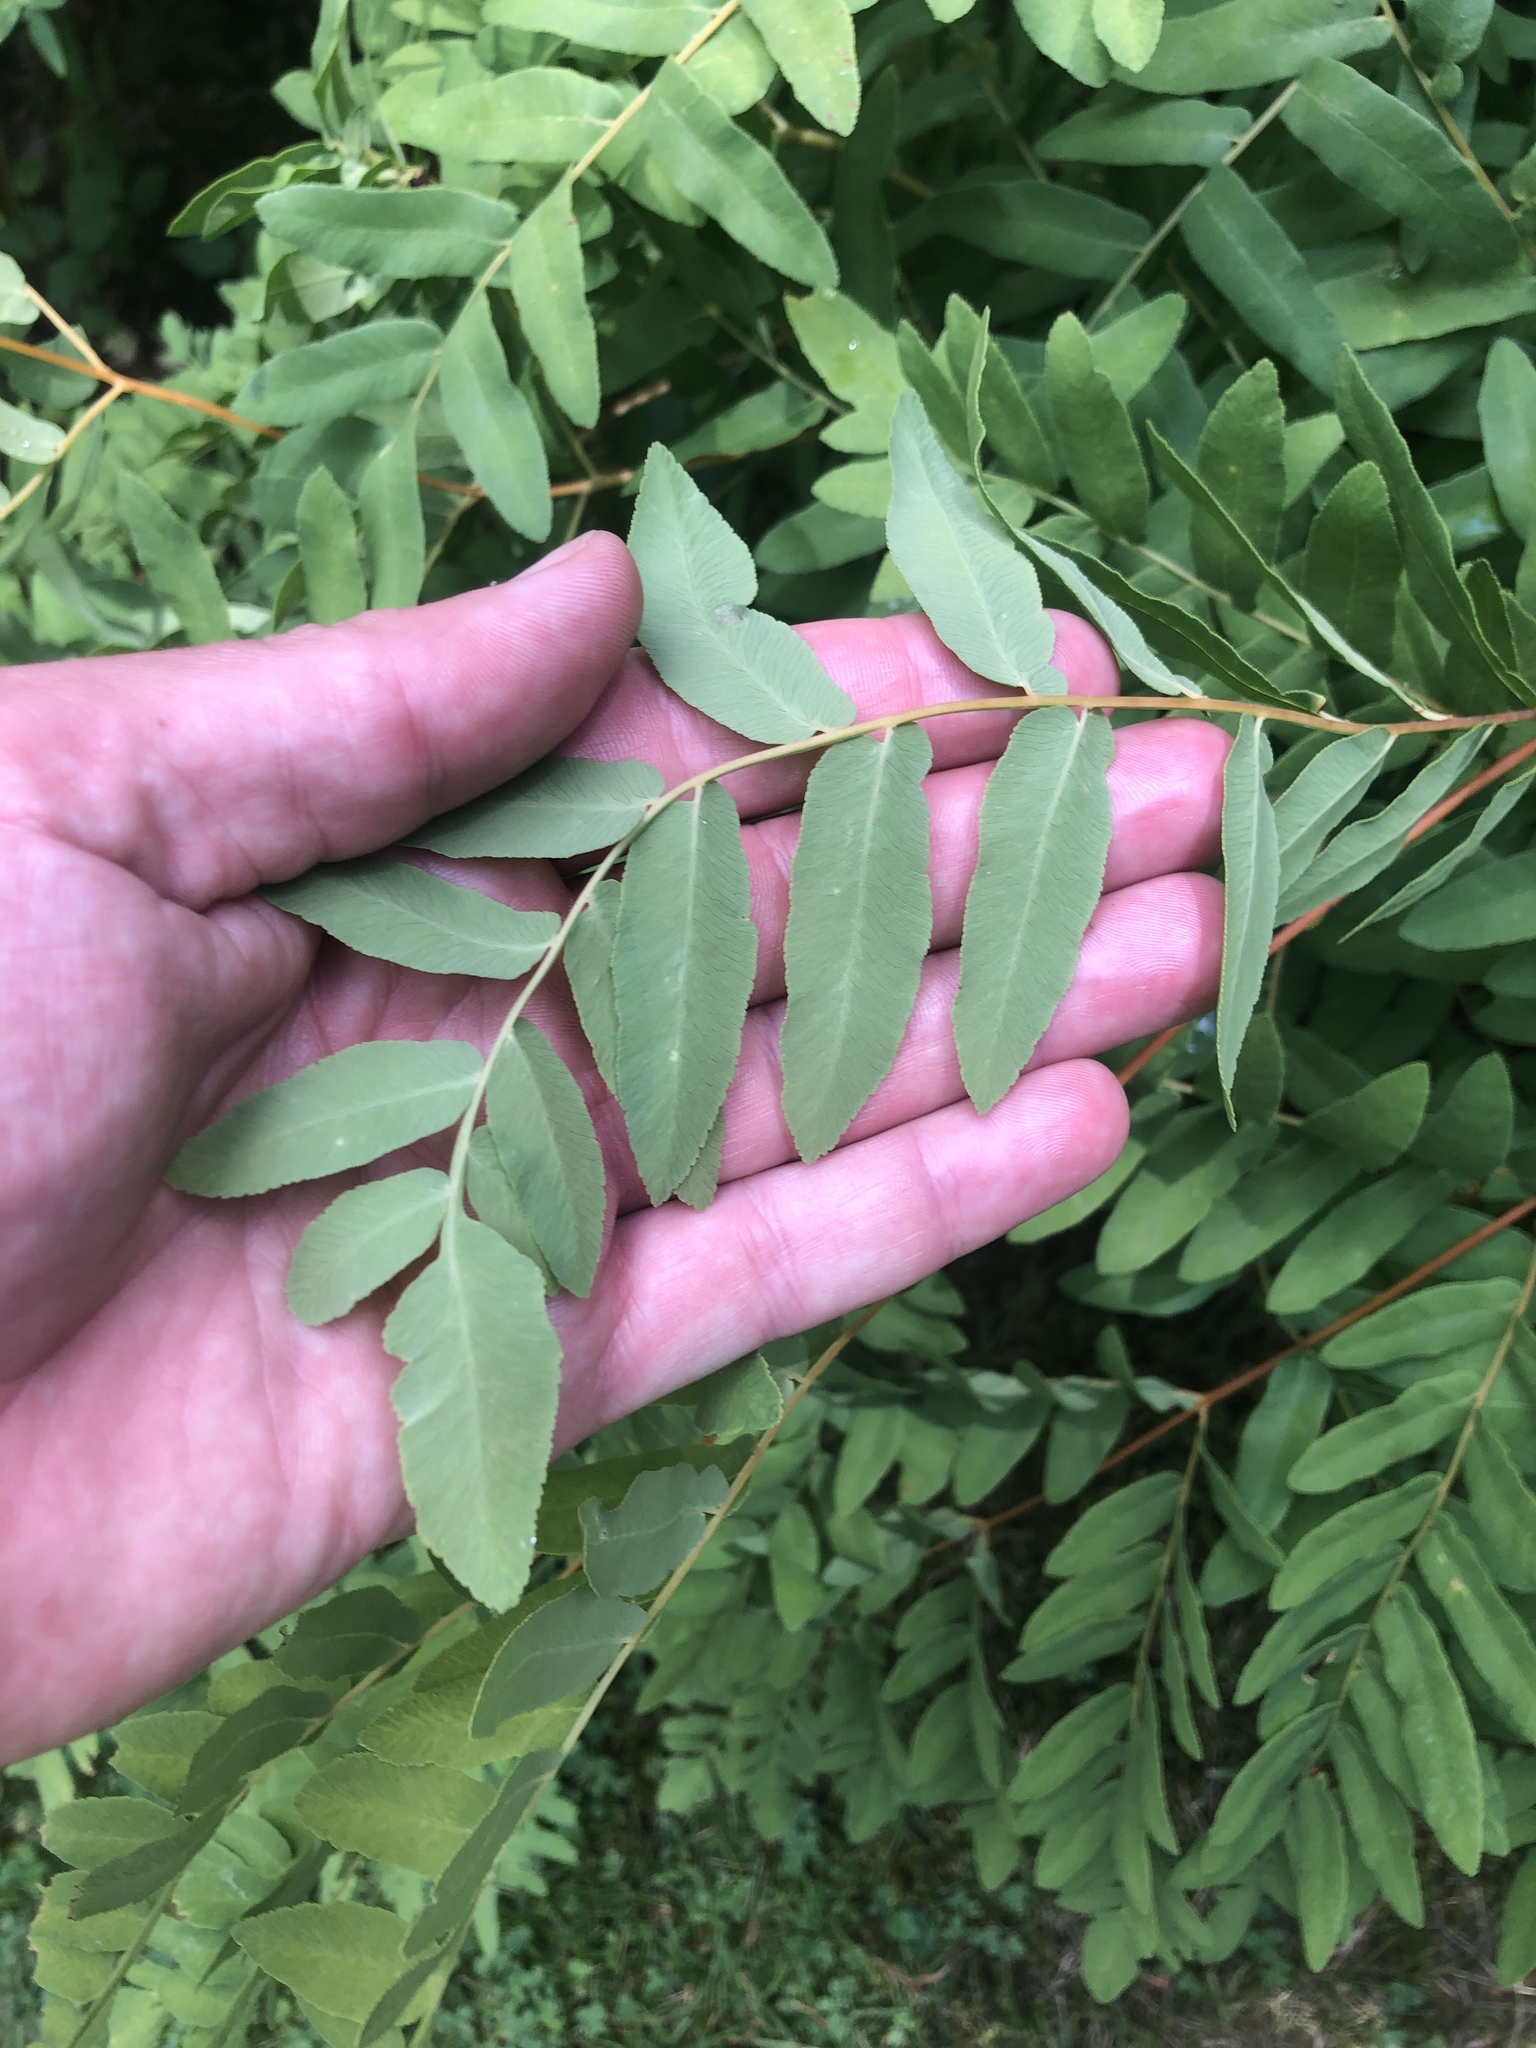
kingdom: Plantae
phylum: Tracheophyta
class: Polypodiopsida
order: Osmundales
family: Osmundaceae
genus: Osmunda
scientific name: Osmunda spectabilis
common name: American royal fern
